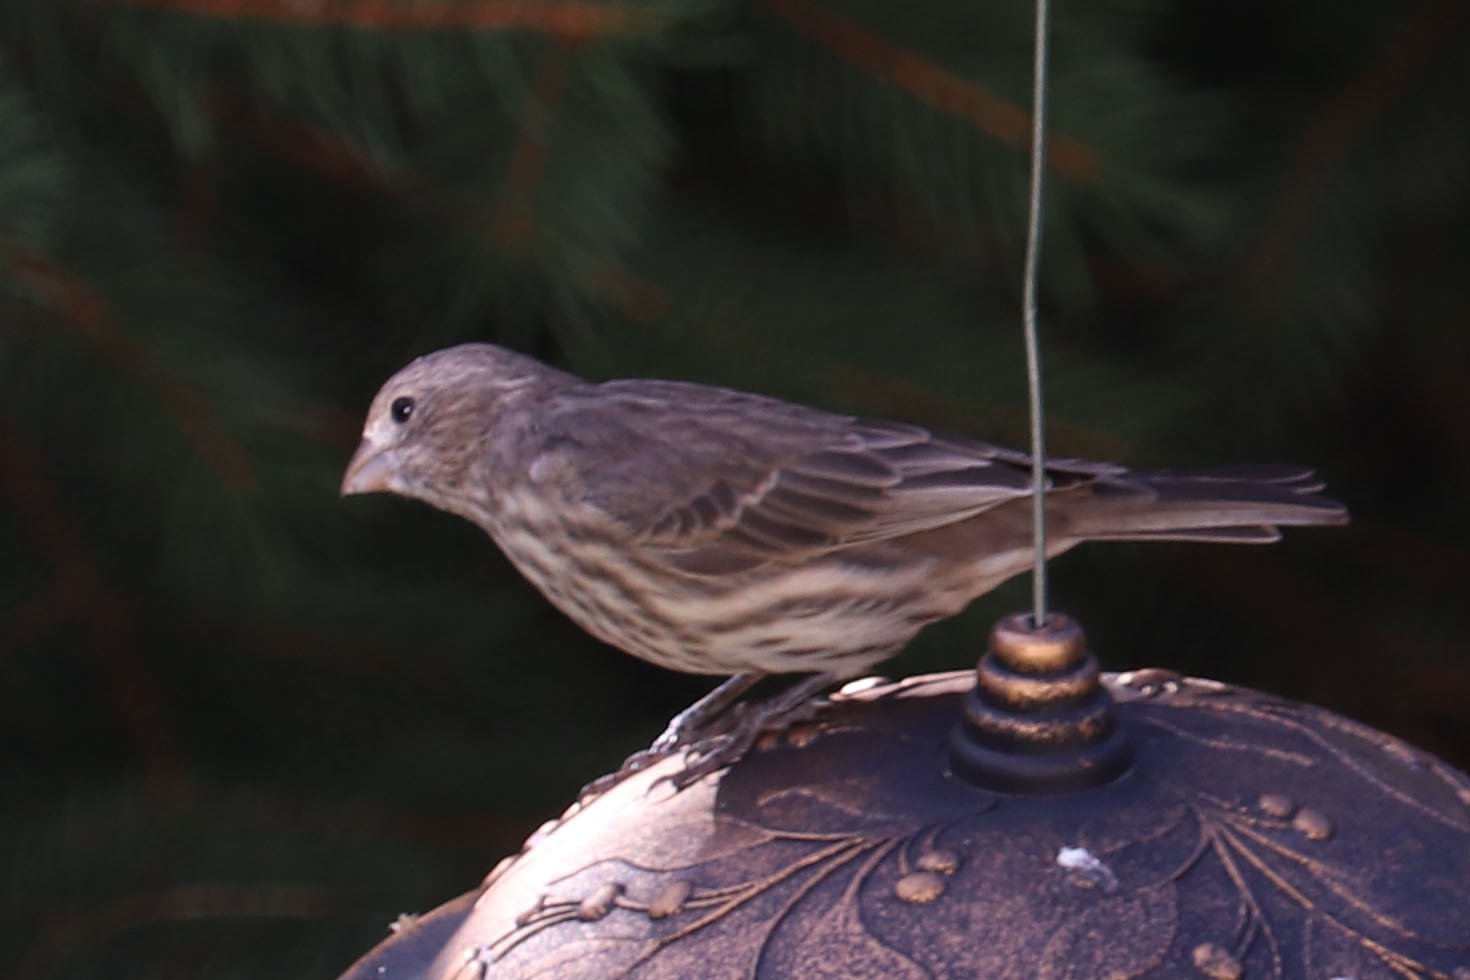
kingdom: Animalia
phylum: Chordata
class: Aves
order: Passeriformes
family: Fringillidae
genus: Haemorhous
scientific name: Haemorhous mexicanus
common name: House finch
